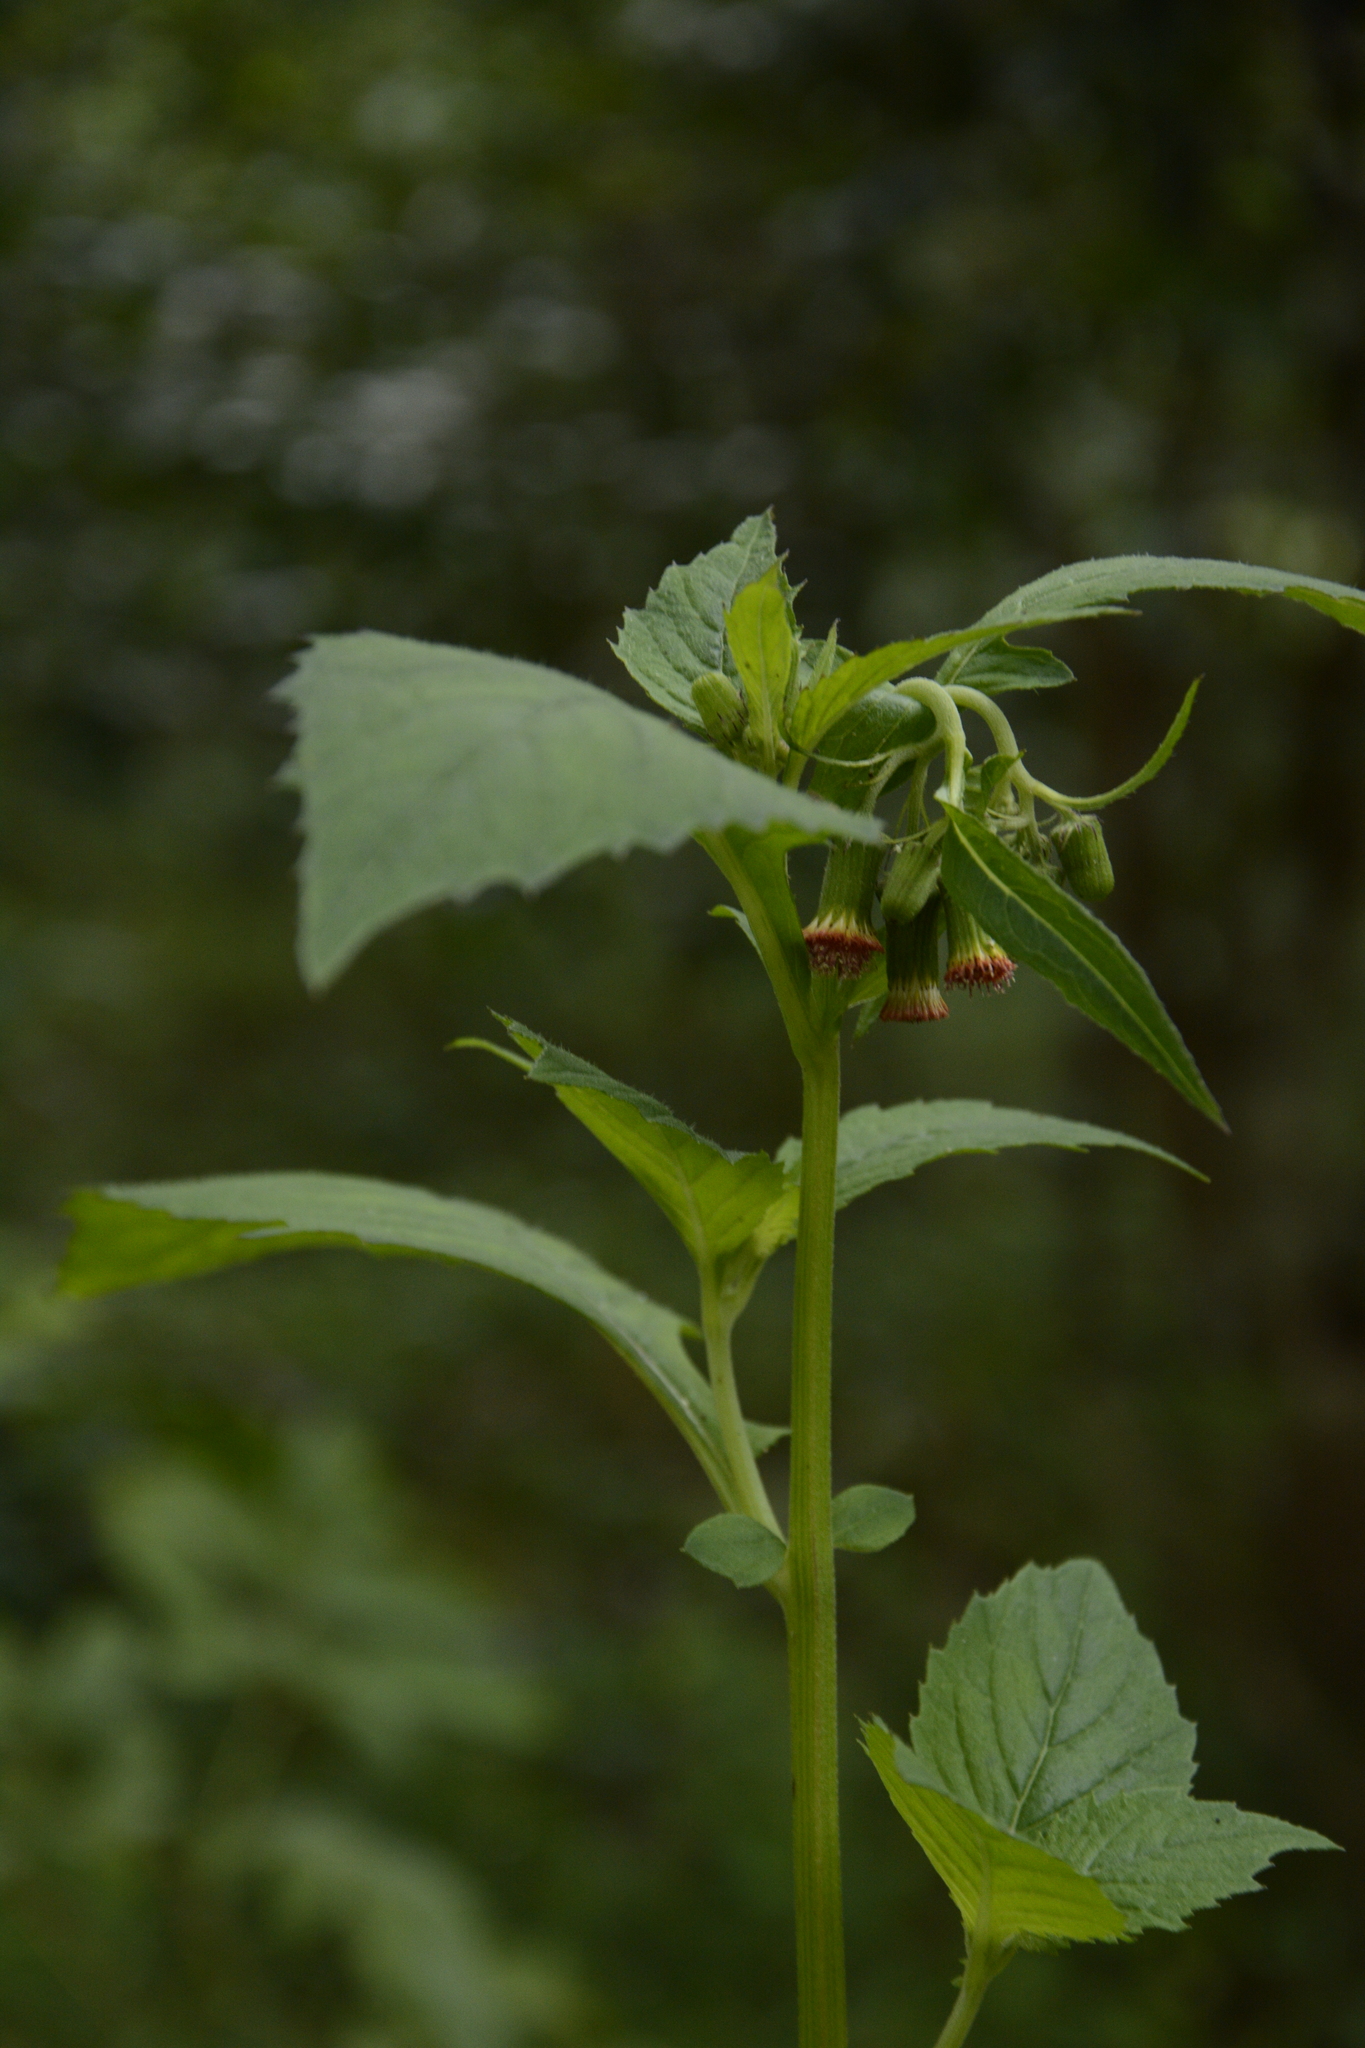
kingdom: Plantae
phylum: Tracheophyta
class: Magnoliopsida
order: Asterales
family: Asteraceae
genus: Crassocephalum
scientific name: Crassocephalum crepidioides
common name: Redflower ragleaf
